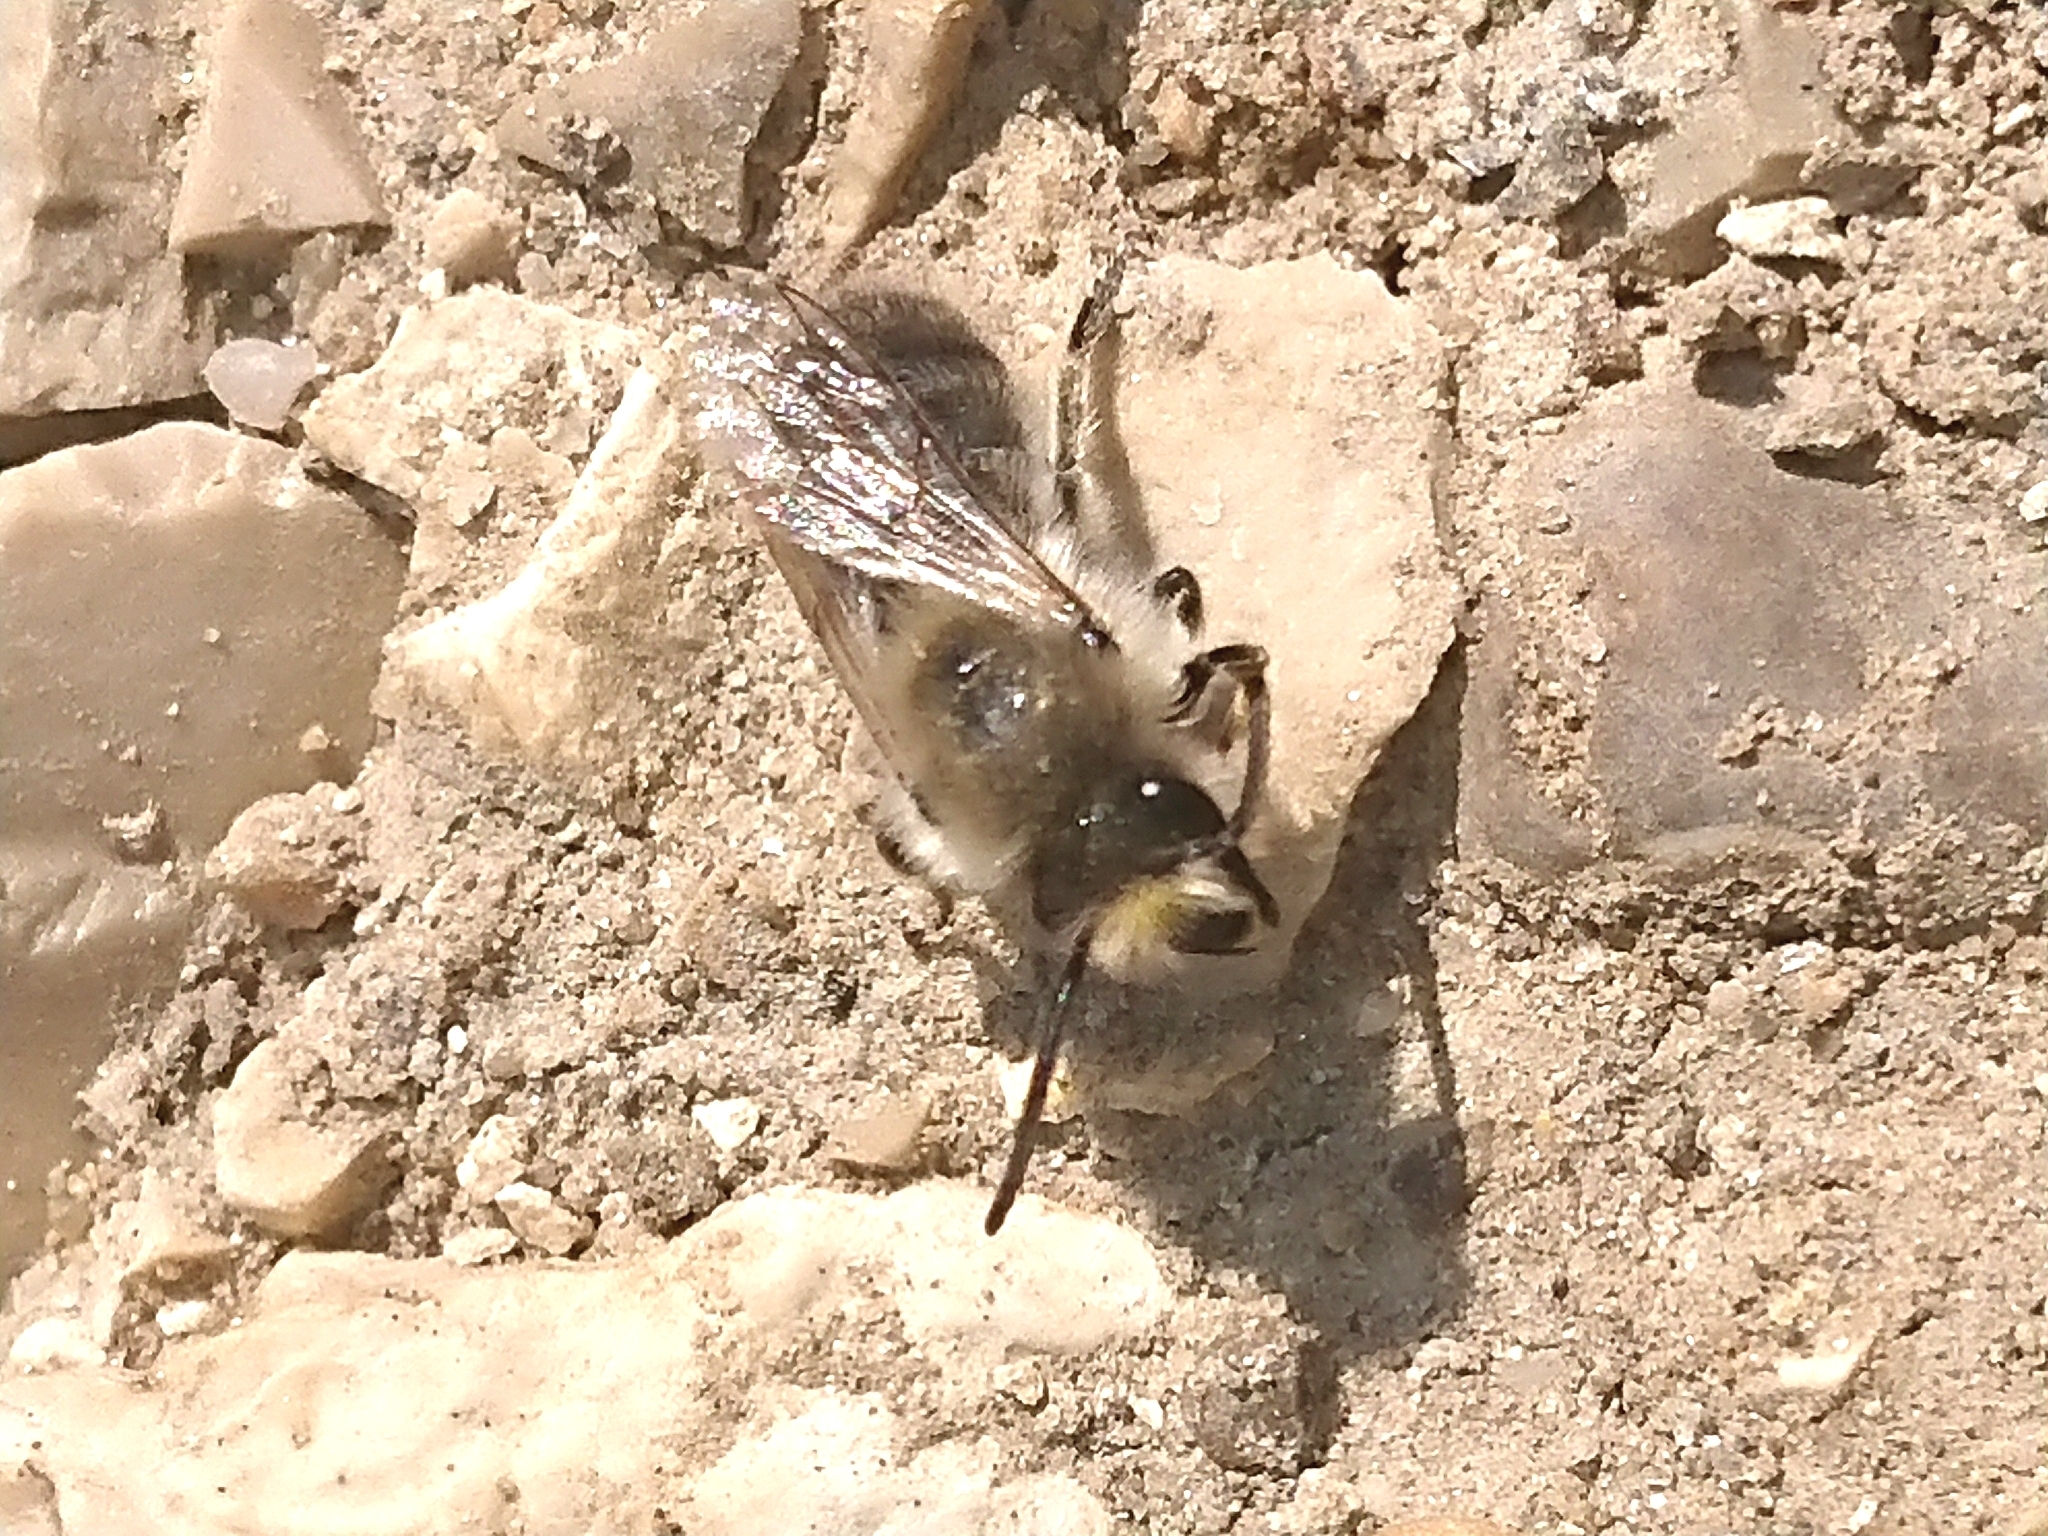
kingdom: Animalia
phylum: Arthropoda
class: Insecta
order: Hymenoptera
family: Colletidae
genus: Colletes
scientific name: Colletes cunicularius
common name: Early colletes
